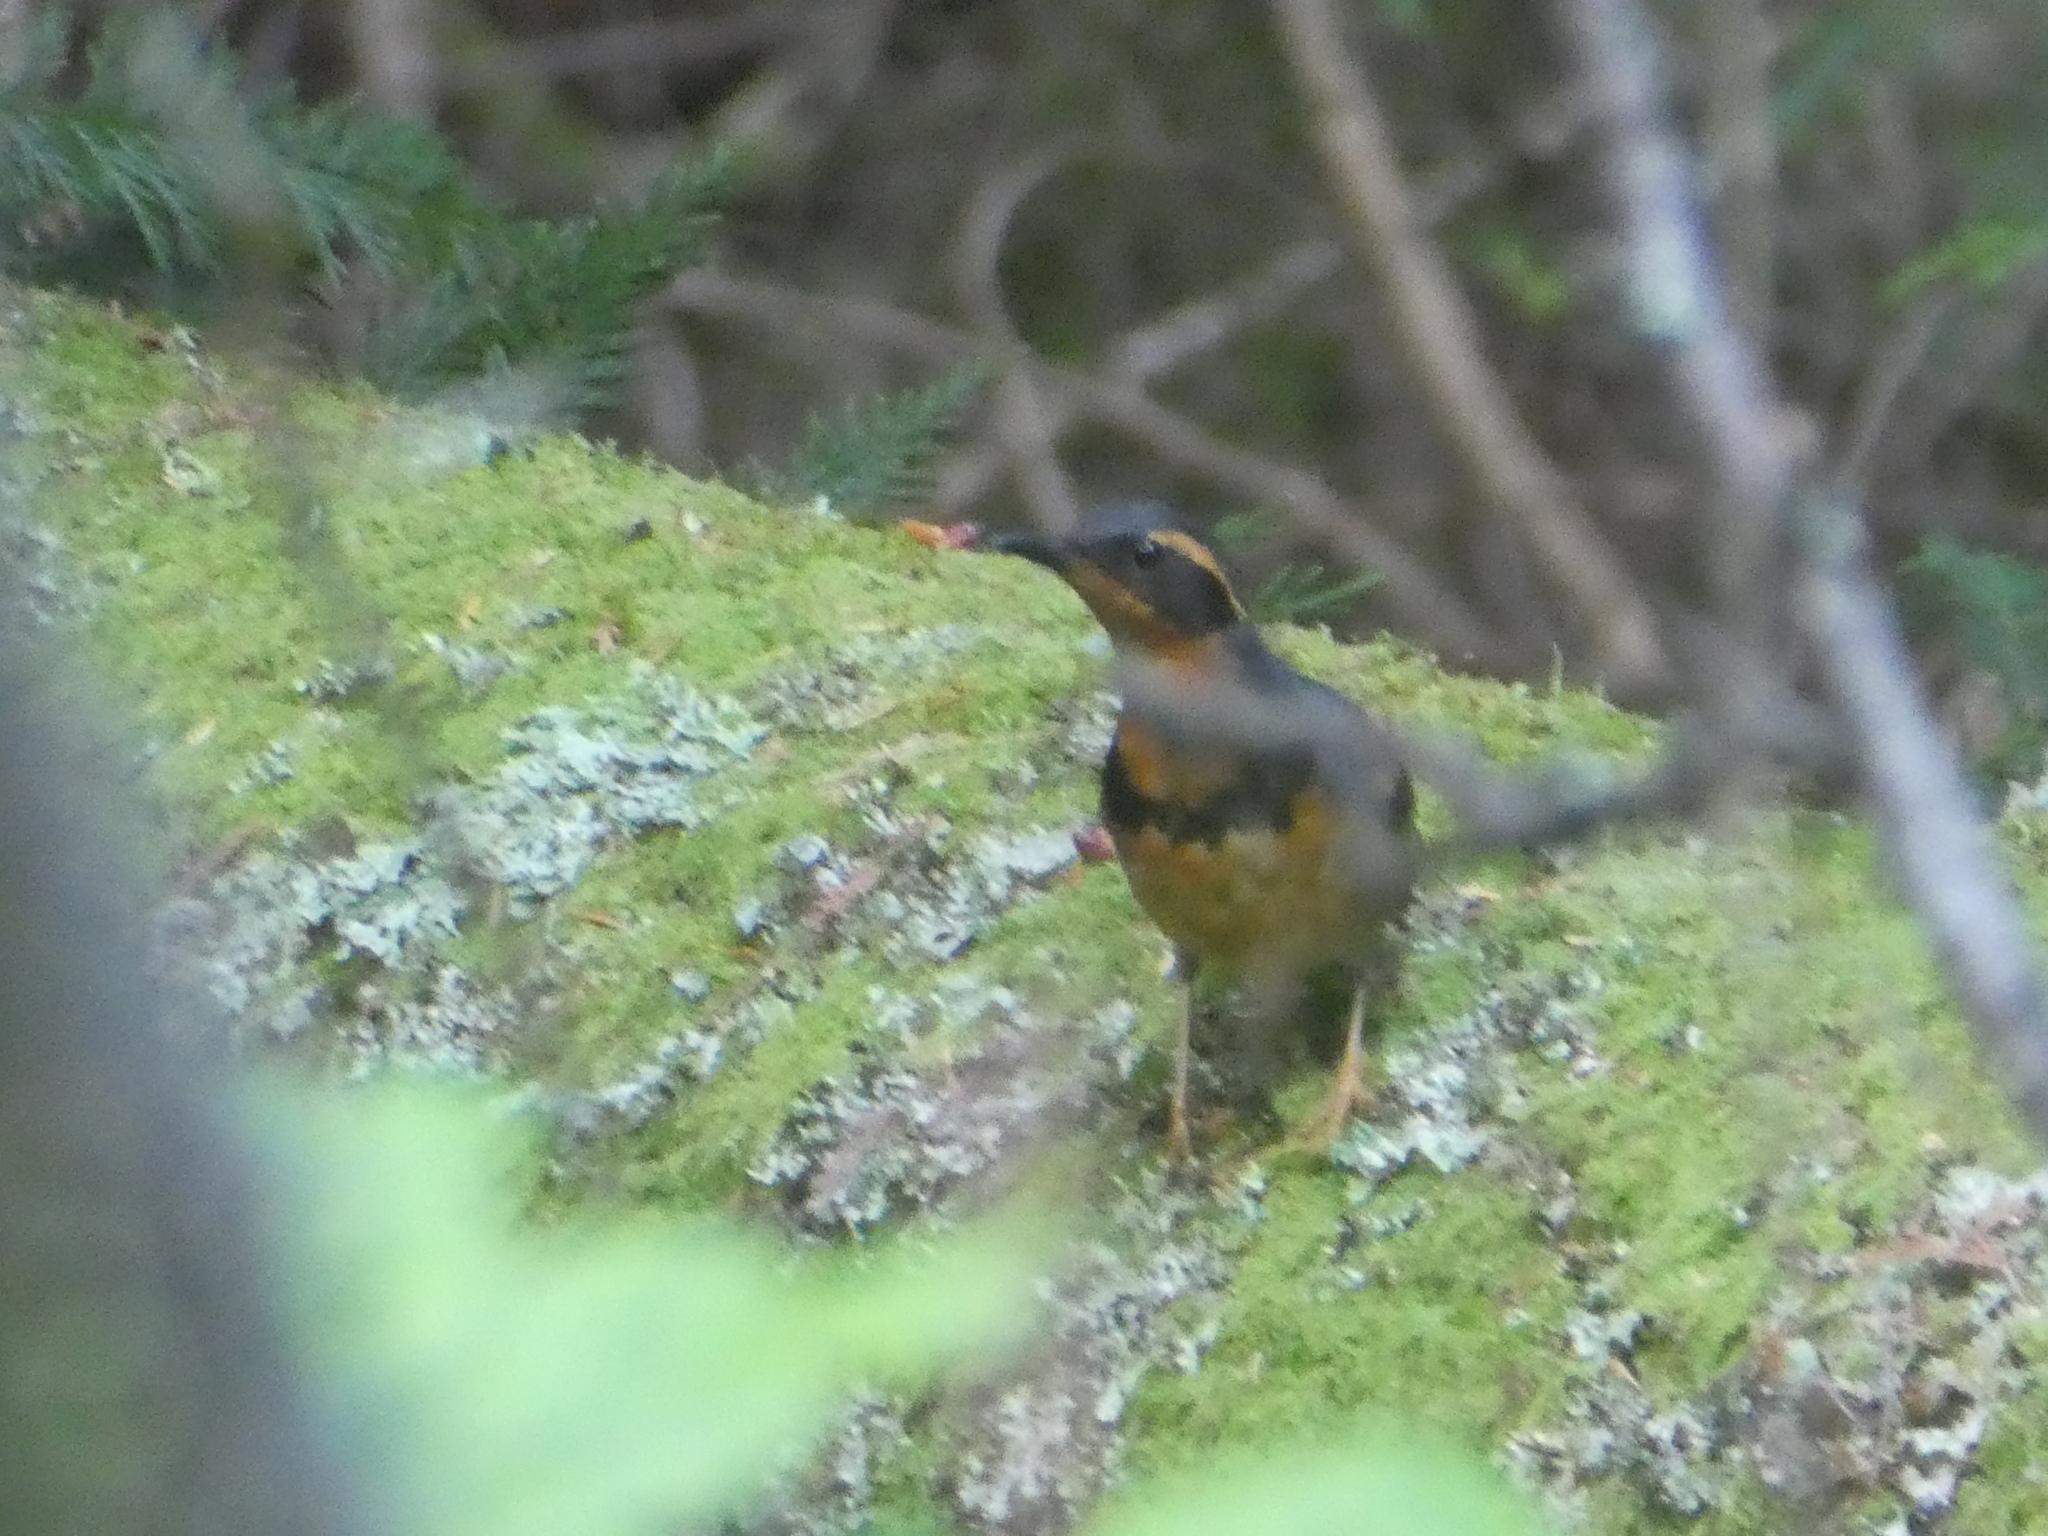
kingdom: Animalia
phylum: Chordata
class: Aves
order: Passeriformes
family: Turdidae
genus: Ixoreus
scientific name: Ixoreus naevius
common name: Varied thrush
